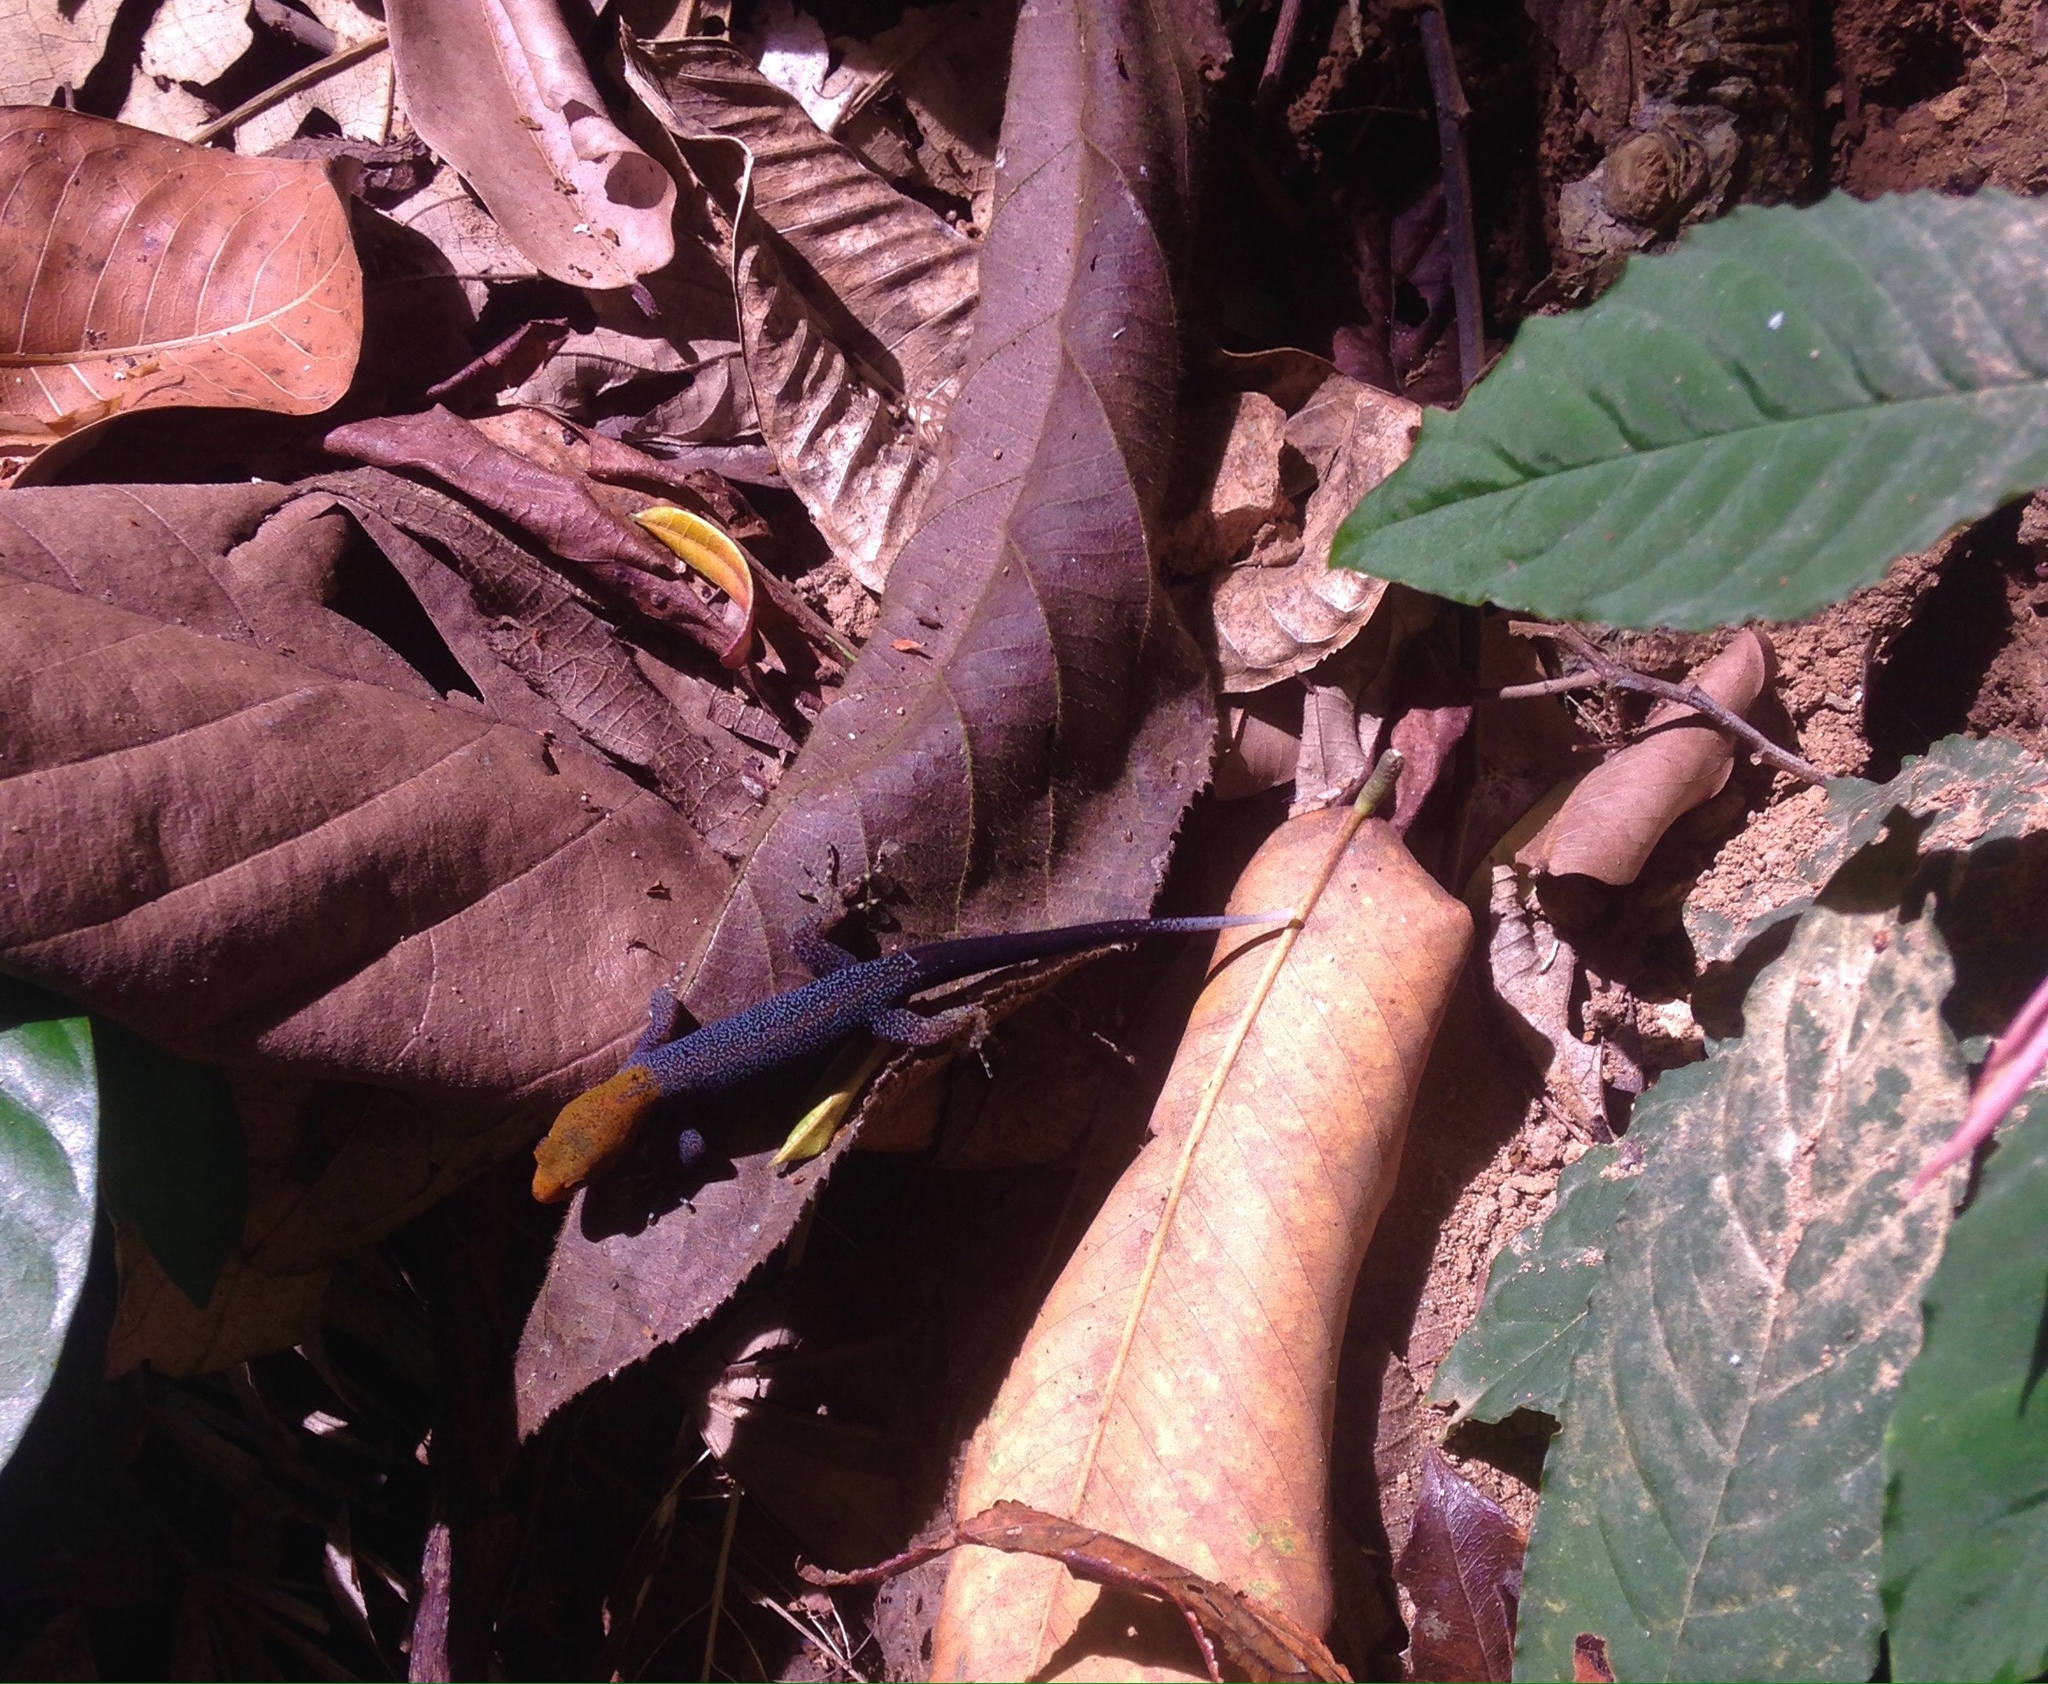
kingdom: Animalia
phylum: Chordata
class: Squamata
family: Sphaerodactylidae
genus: Gonatodes
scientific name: Gonatodes albogularis
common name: Yellow-headed gecko
